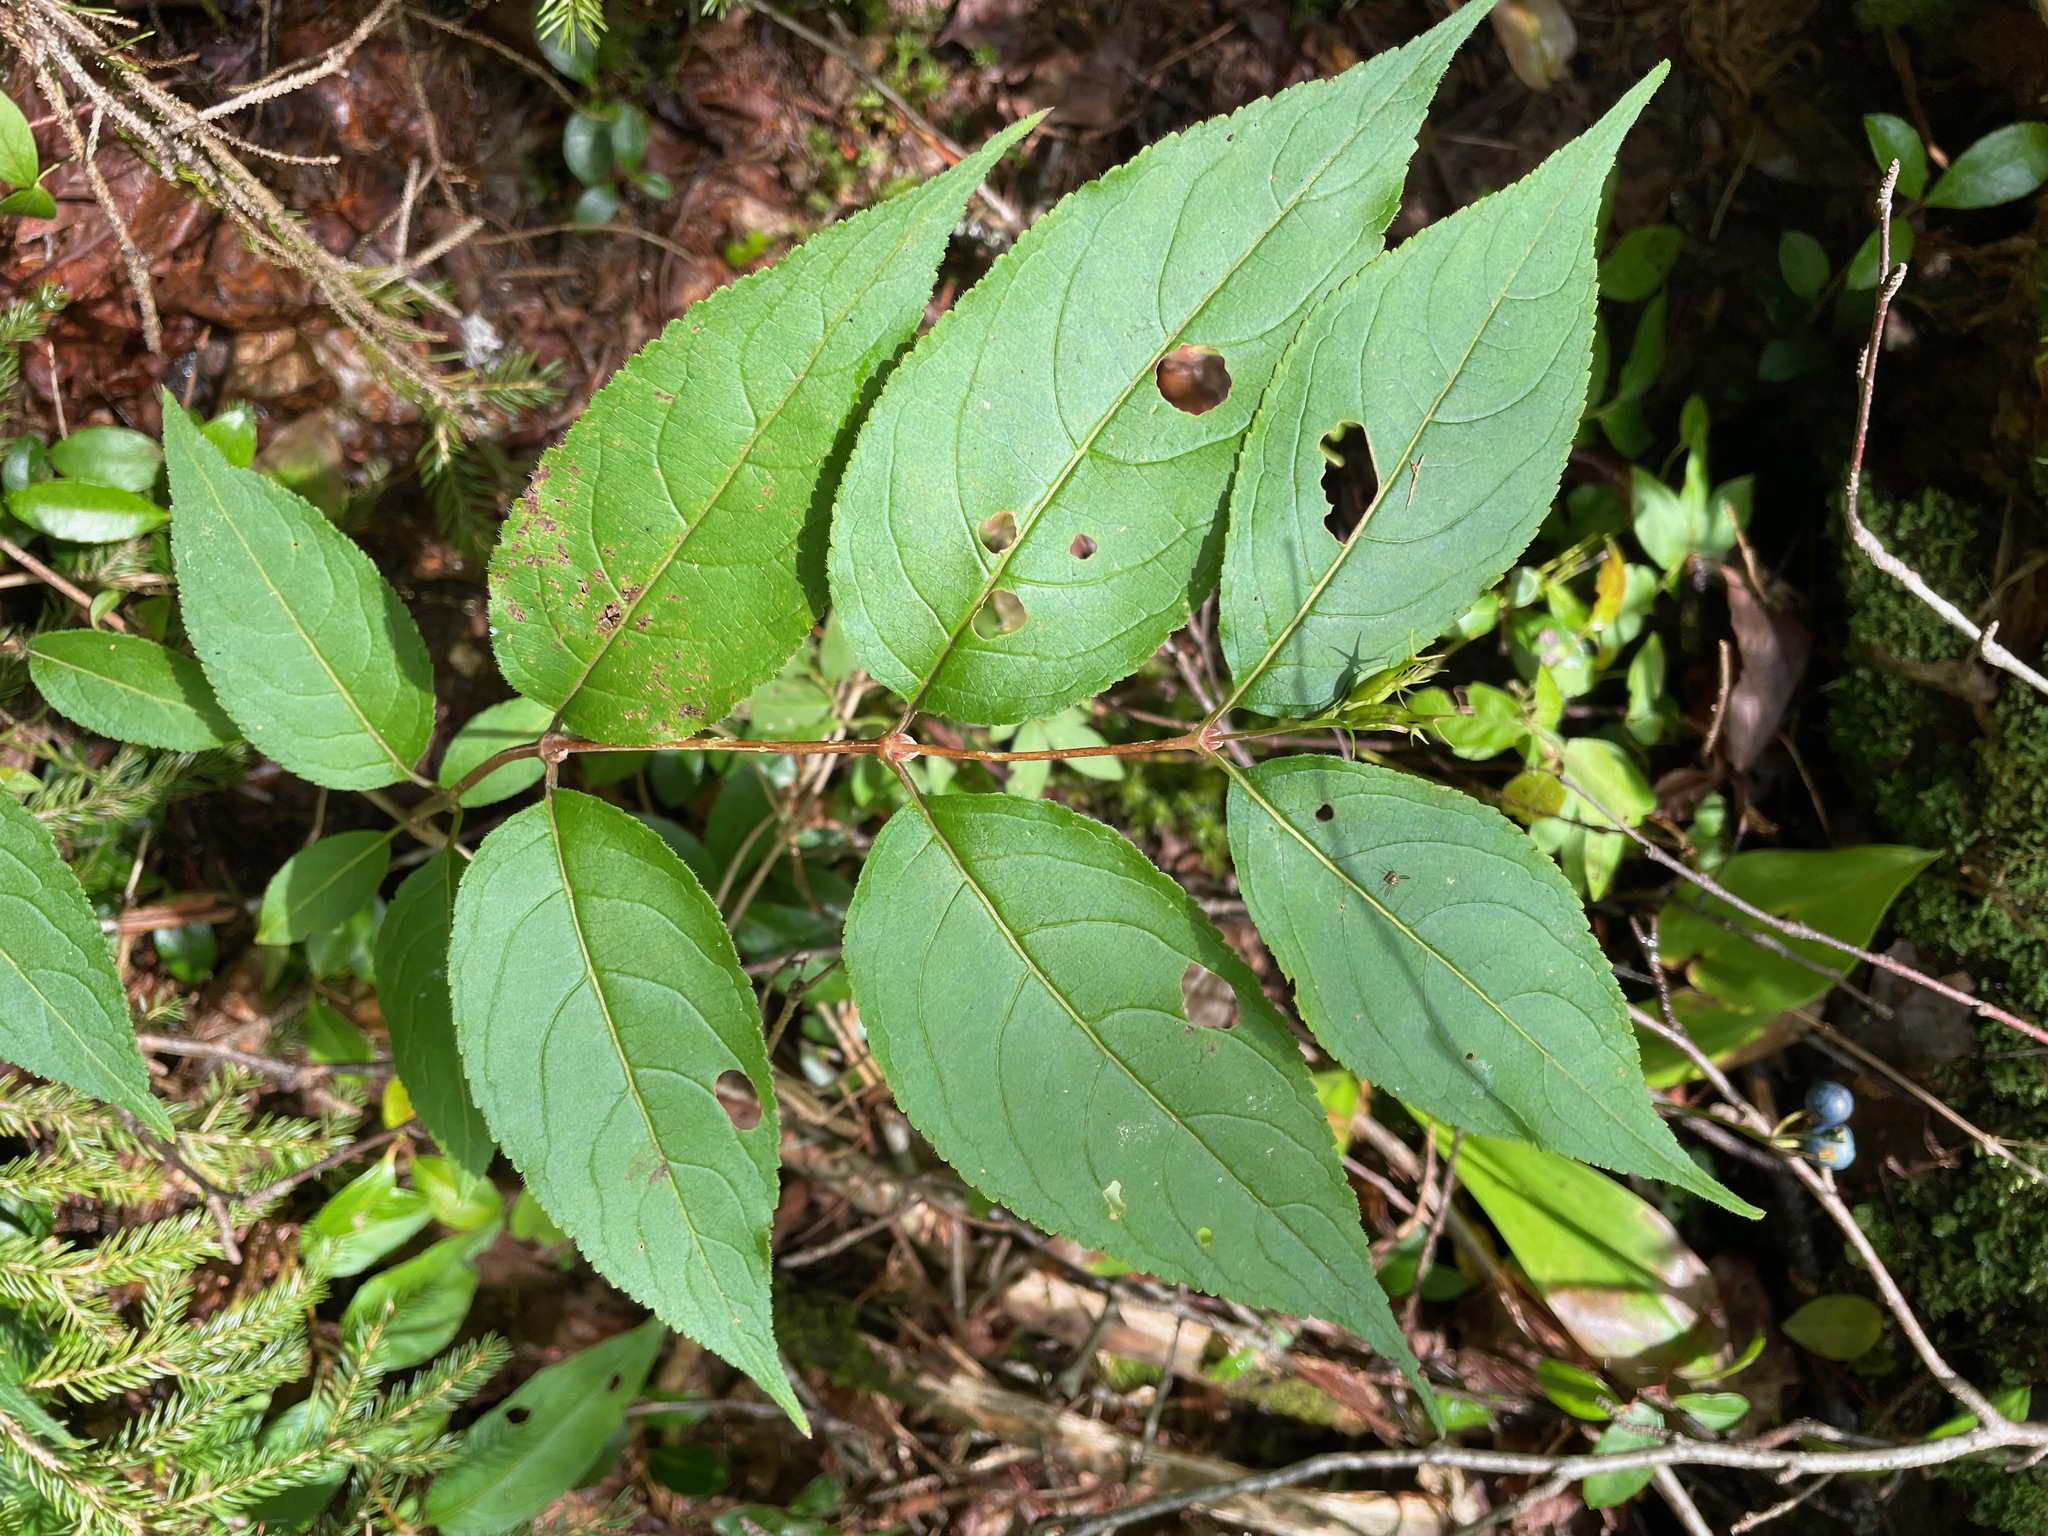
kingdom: Plantae
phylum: Tracheophyta
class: Magnoliopsida
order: Dipsacales
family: Caprifoliaceae
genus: Diervilla
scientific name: Diervilla lonicera
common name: Bush-honeysuckle
